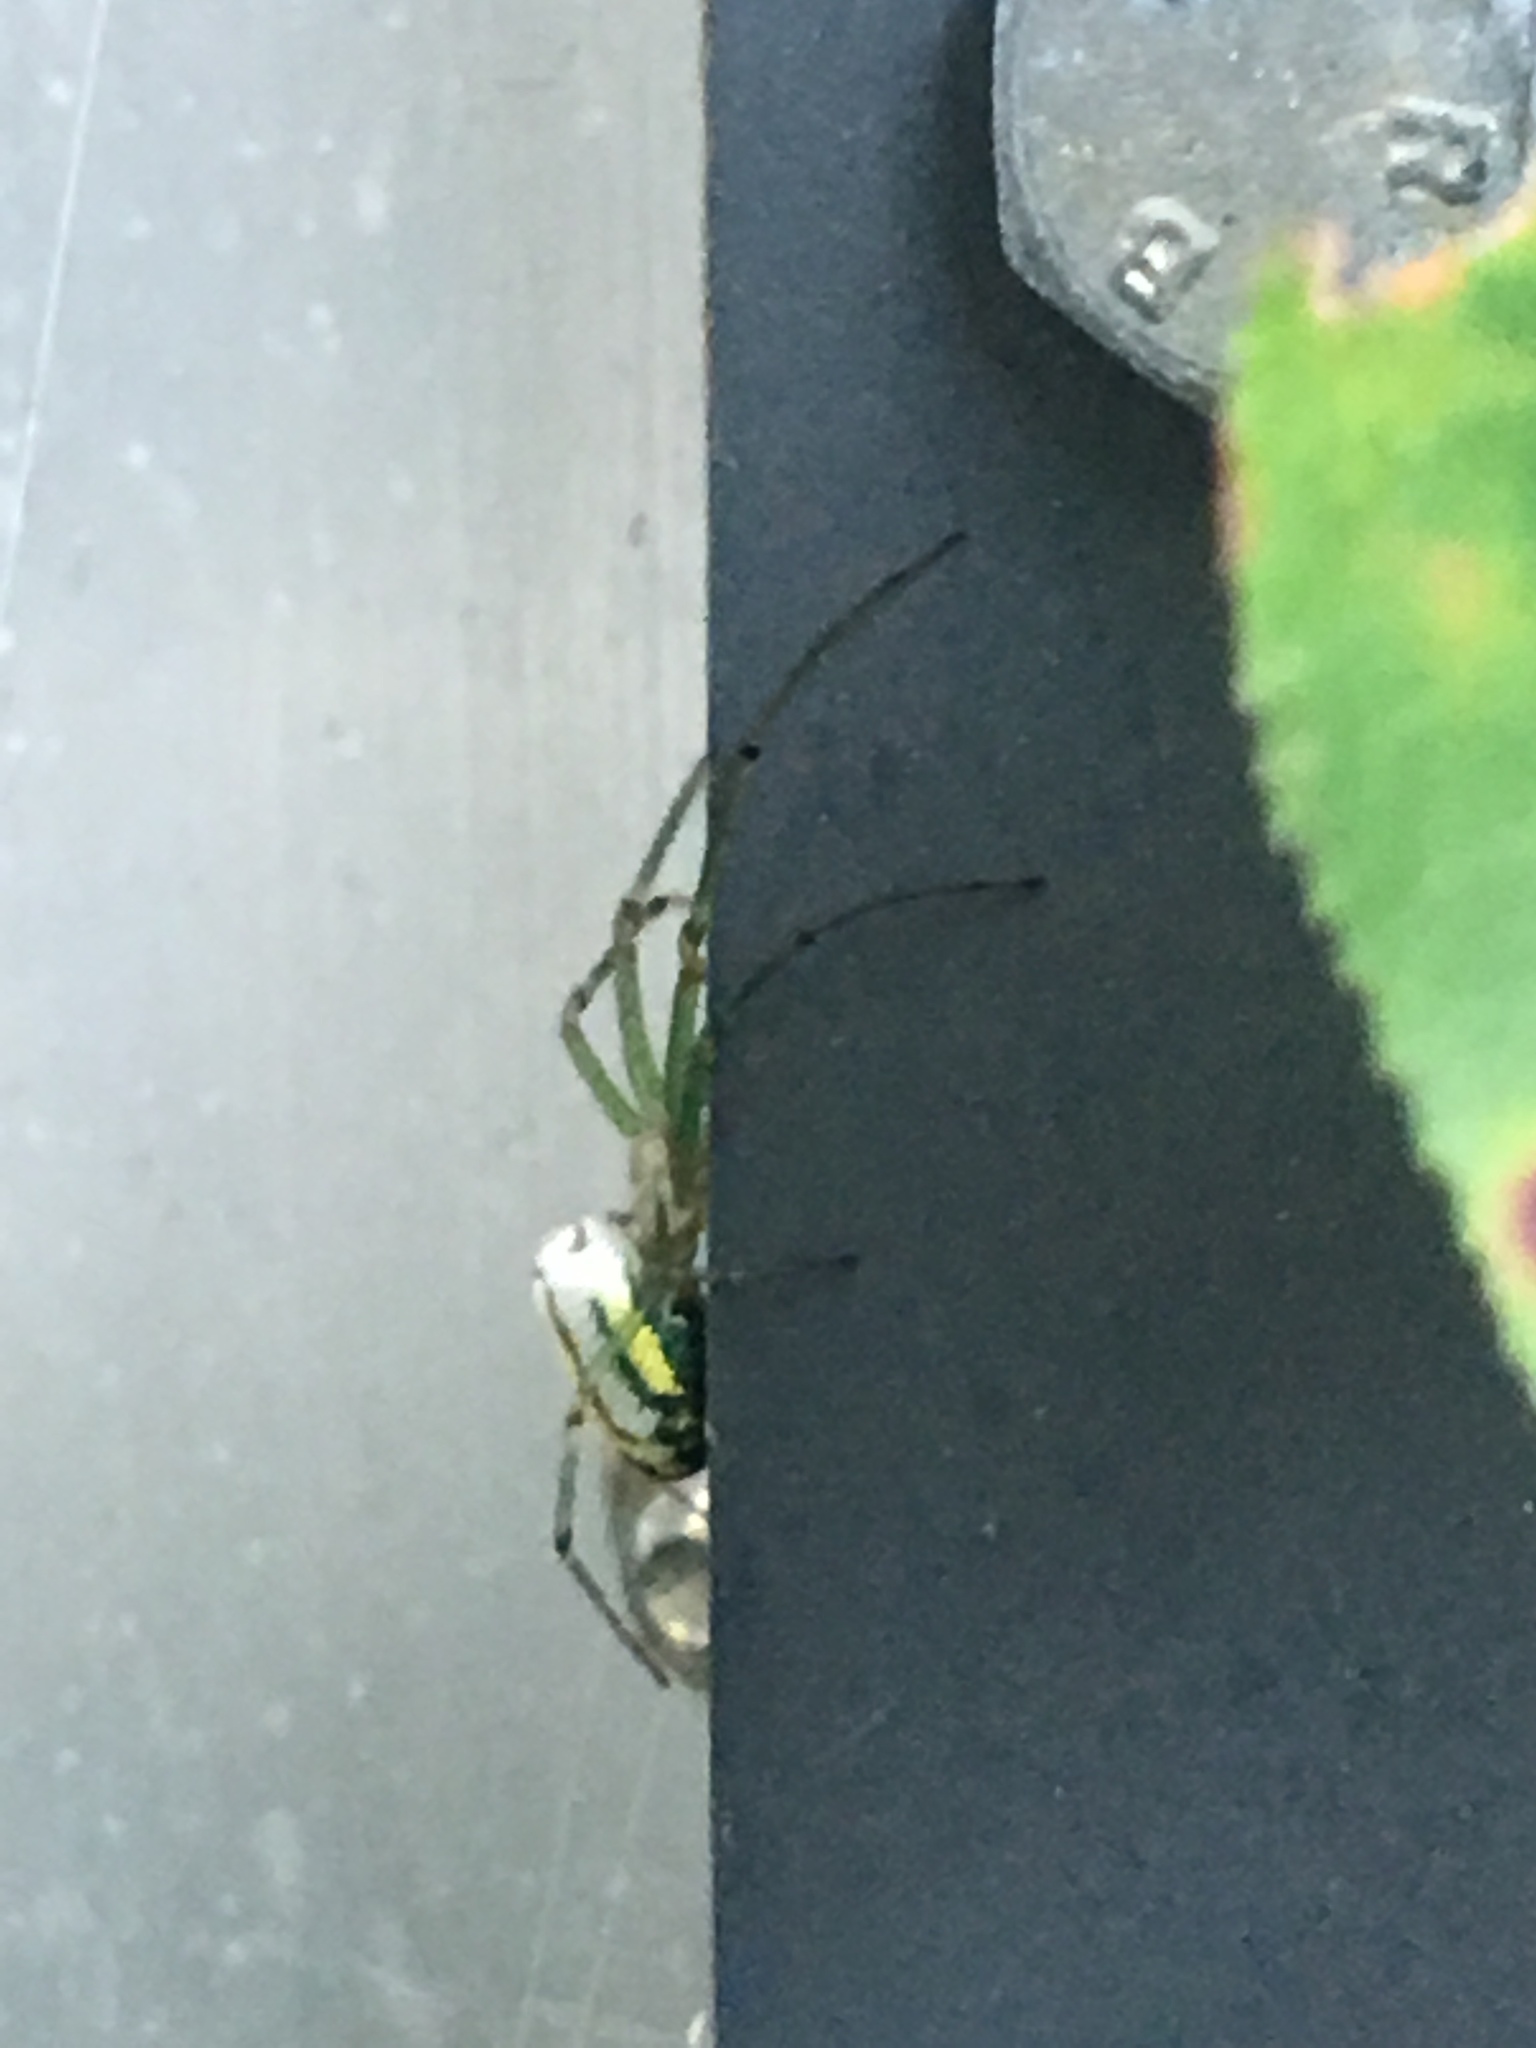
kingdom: Animalia
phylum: Arthropoda
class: Arachnida
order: Araneae
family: Tetragnathidae
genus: Leucauge
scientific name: Leucauge venusta
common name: Longjawed orb weavers
